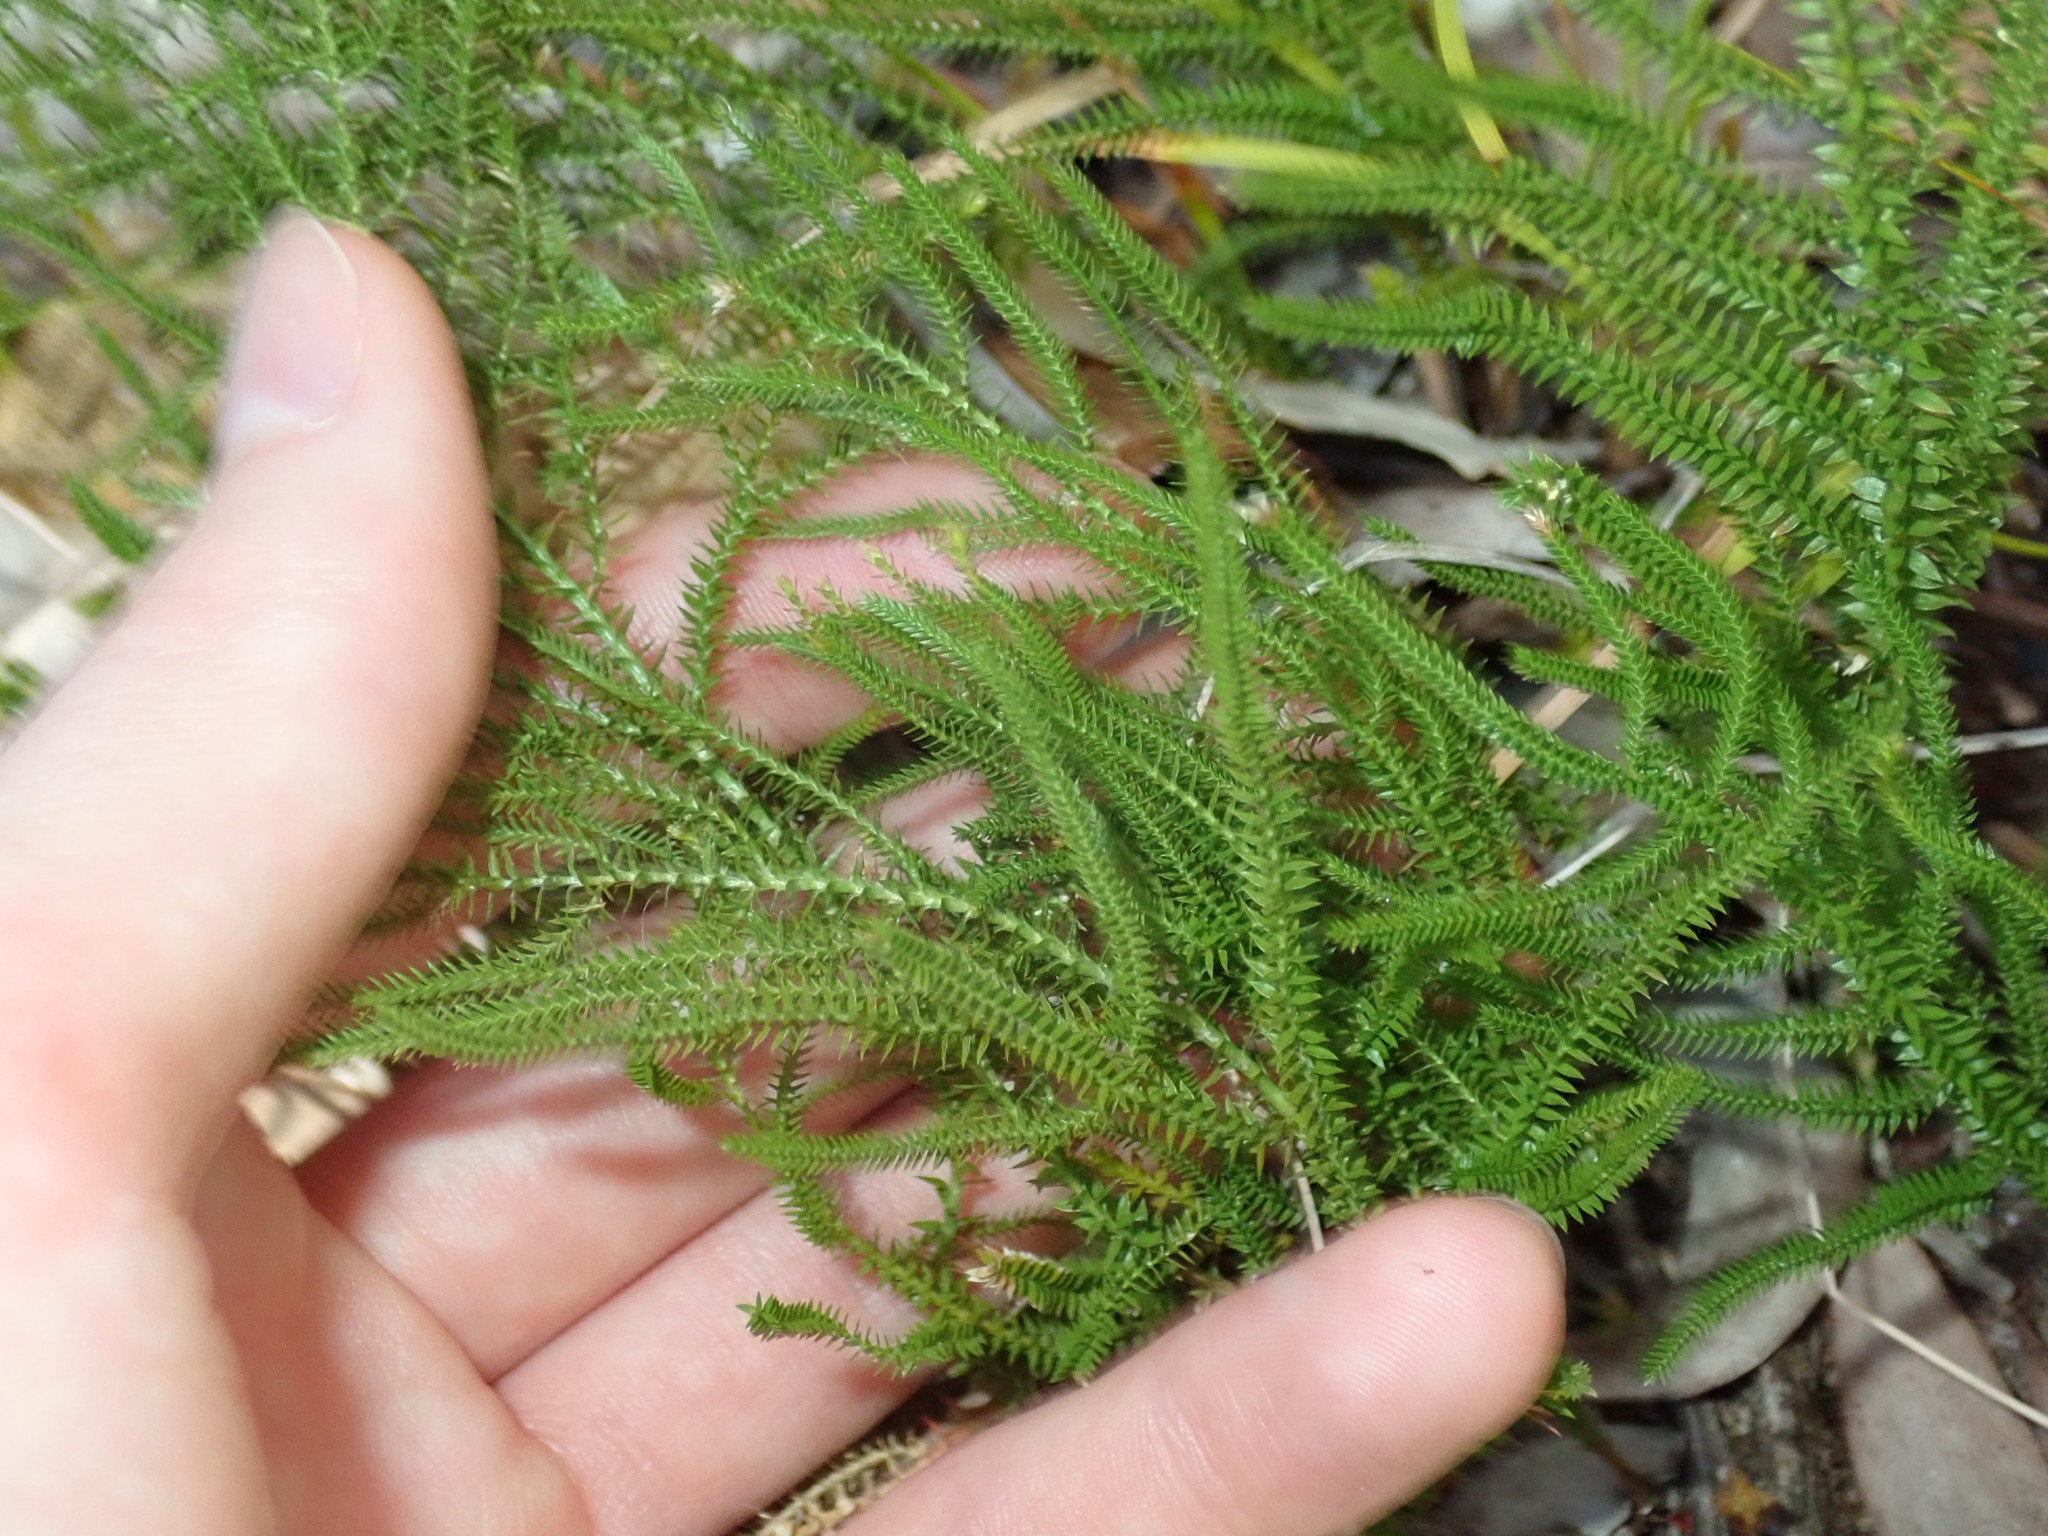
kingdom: Plantae
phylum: Tracheophyta
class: Lycopodiopsida
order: Selaginellales
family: Selaginellaceae
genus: Selaginella
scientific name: Selaginella uliginosa
